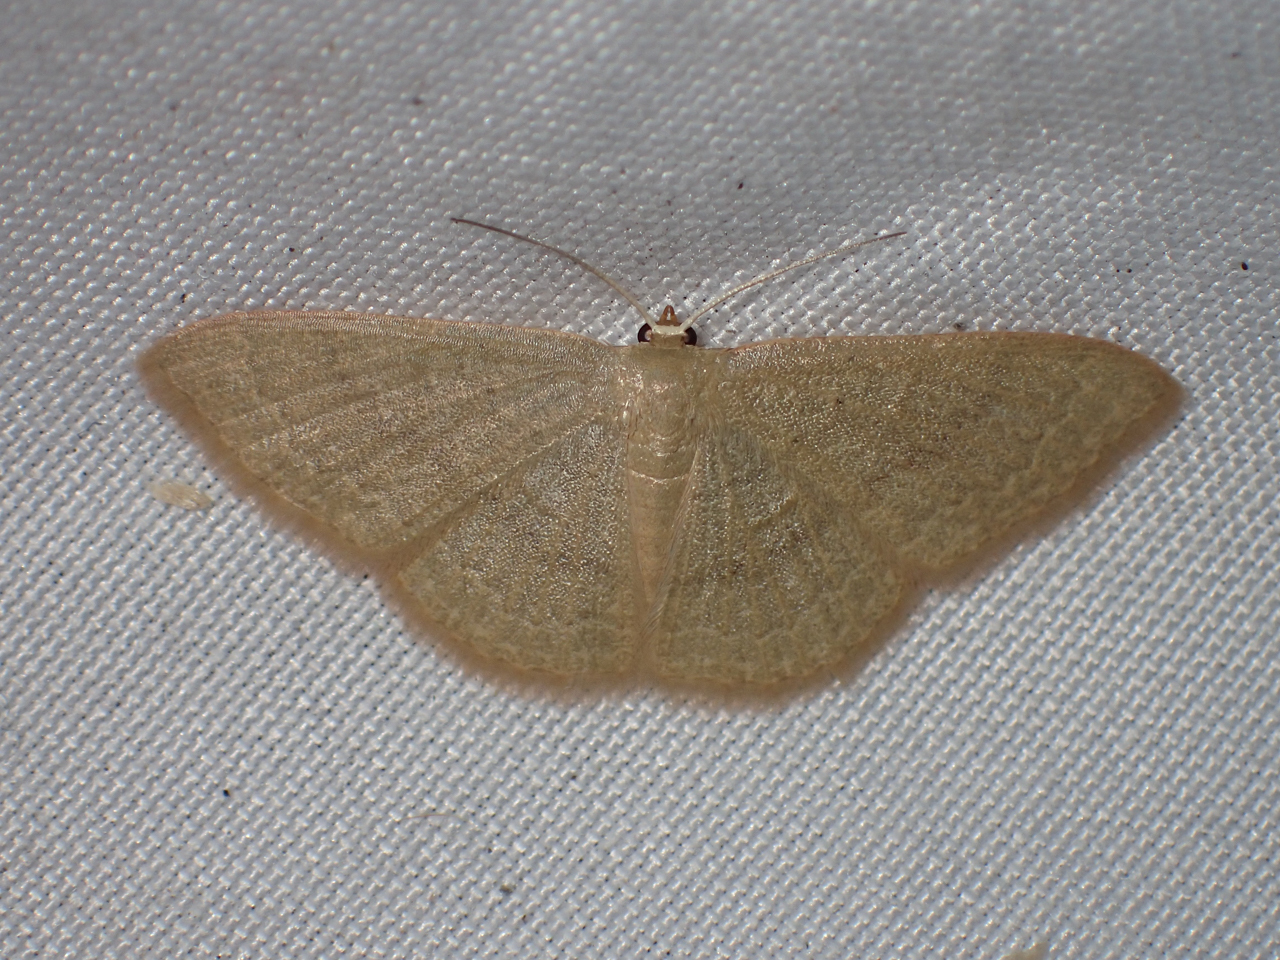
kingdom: Animalia
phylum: Arthropoda
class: Insecta
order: Lepidoptera
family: Geometridae
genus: Pleuroprucha
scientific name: Pleuroprucha insulsaria
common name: Common tan wave
